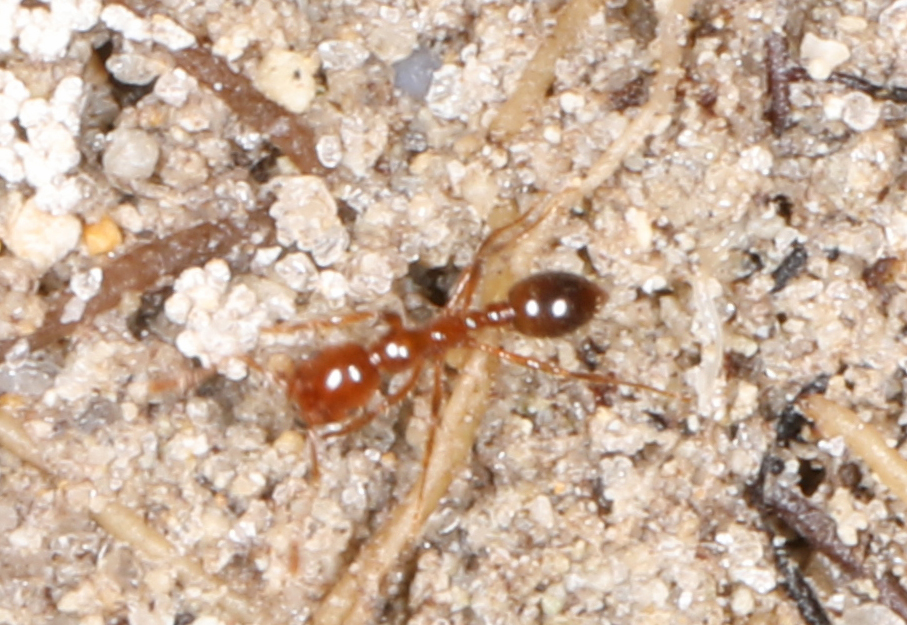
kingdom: Animalia
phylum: Arthropoda
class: Insecta
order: Hymenoptera
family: Formicidae
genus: Solenopsis
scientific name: Solenopsis invicta
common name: Red imported fire ant
